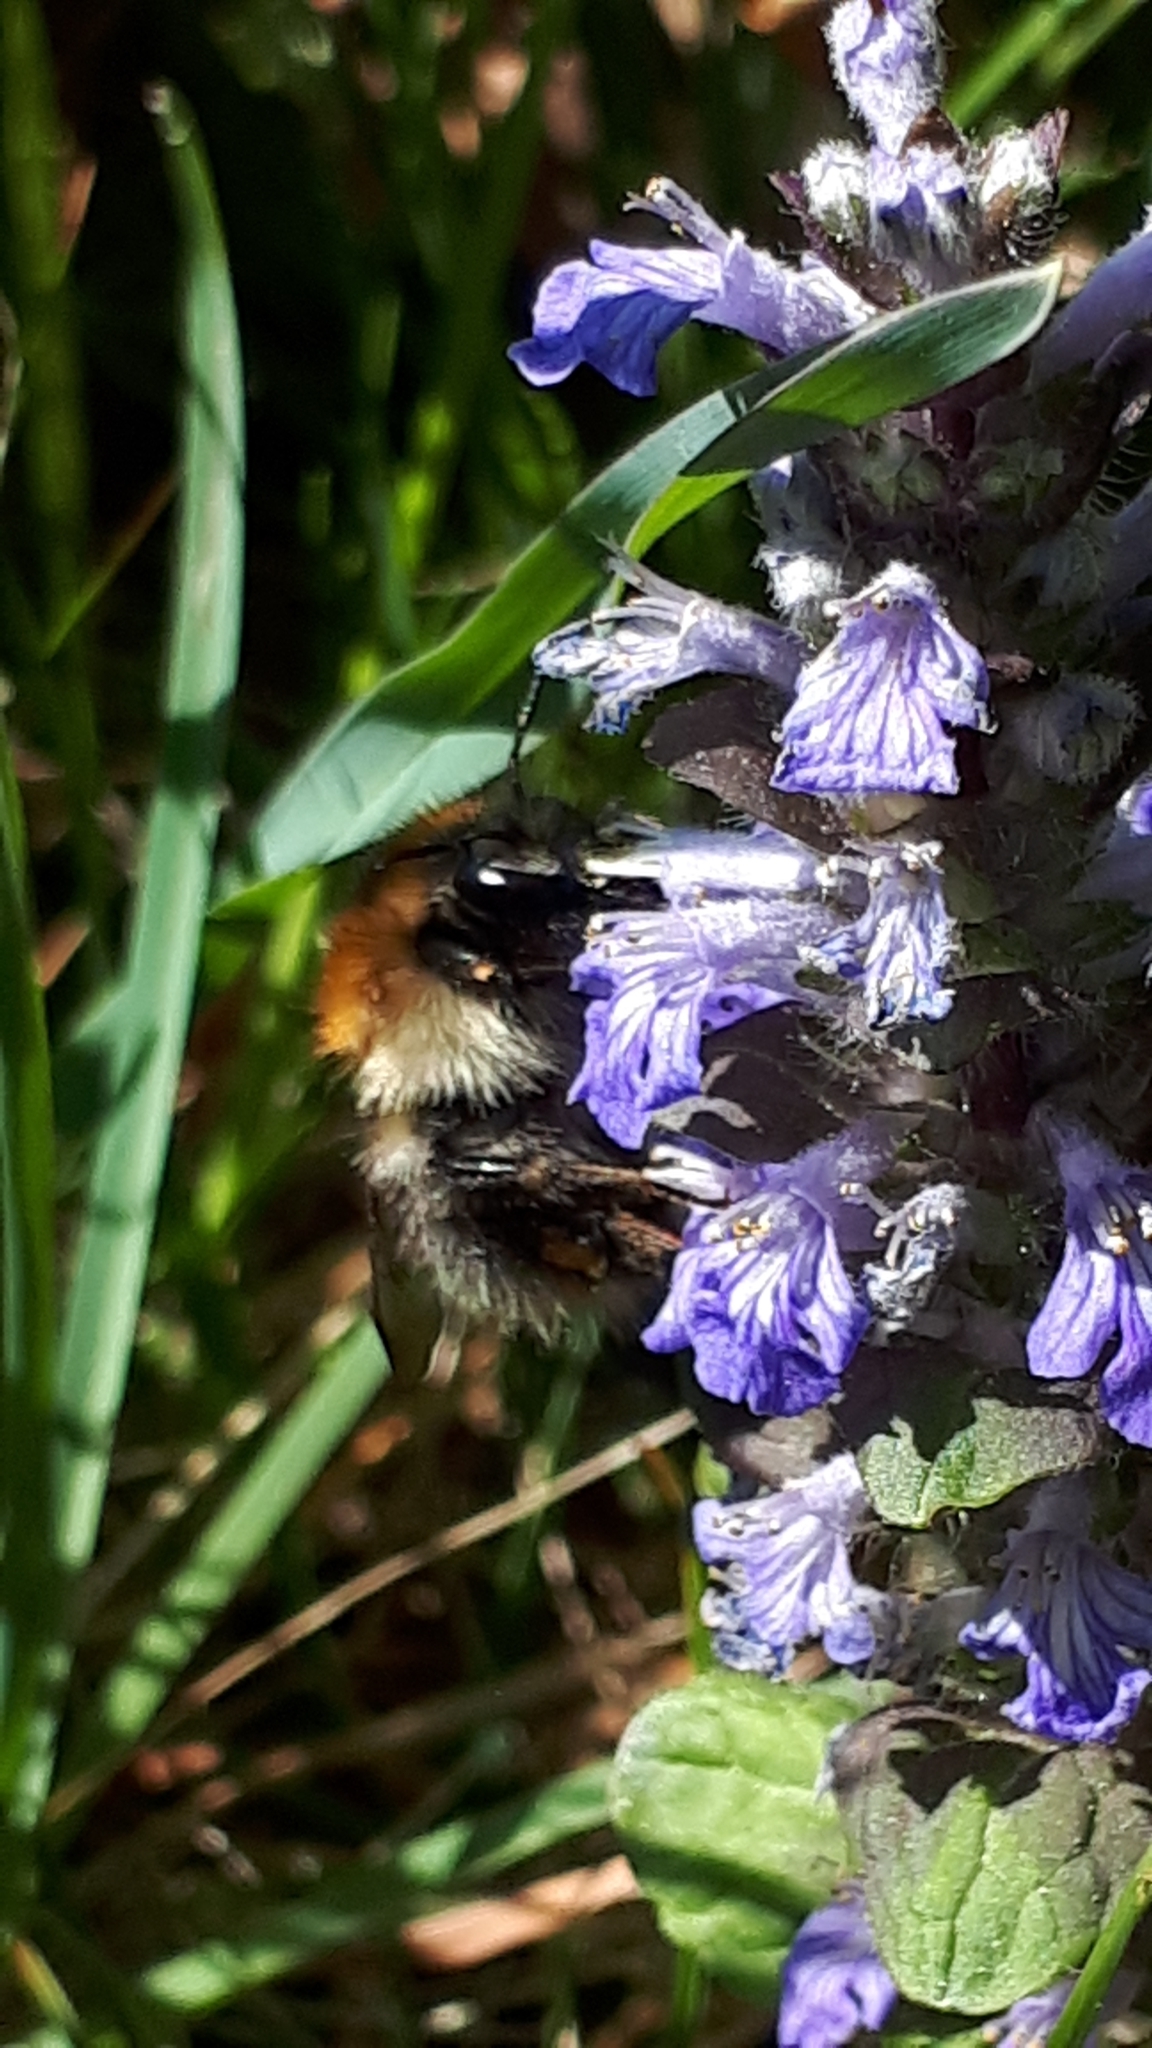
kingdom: Animalia
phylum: Arthropoda
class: Insecta
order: Hymenoptera
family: Apidae
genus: Bombus
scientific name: Bombus pascuorum
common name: Common carder bee
